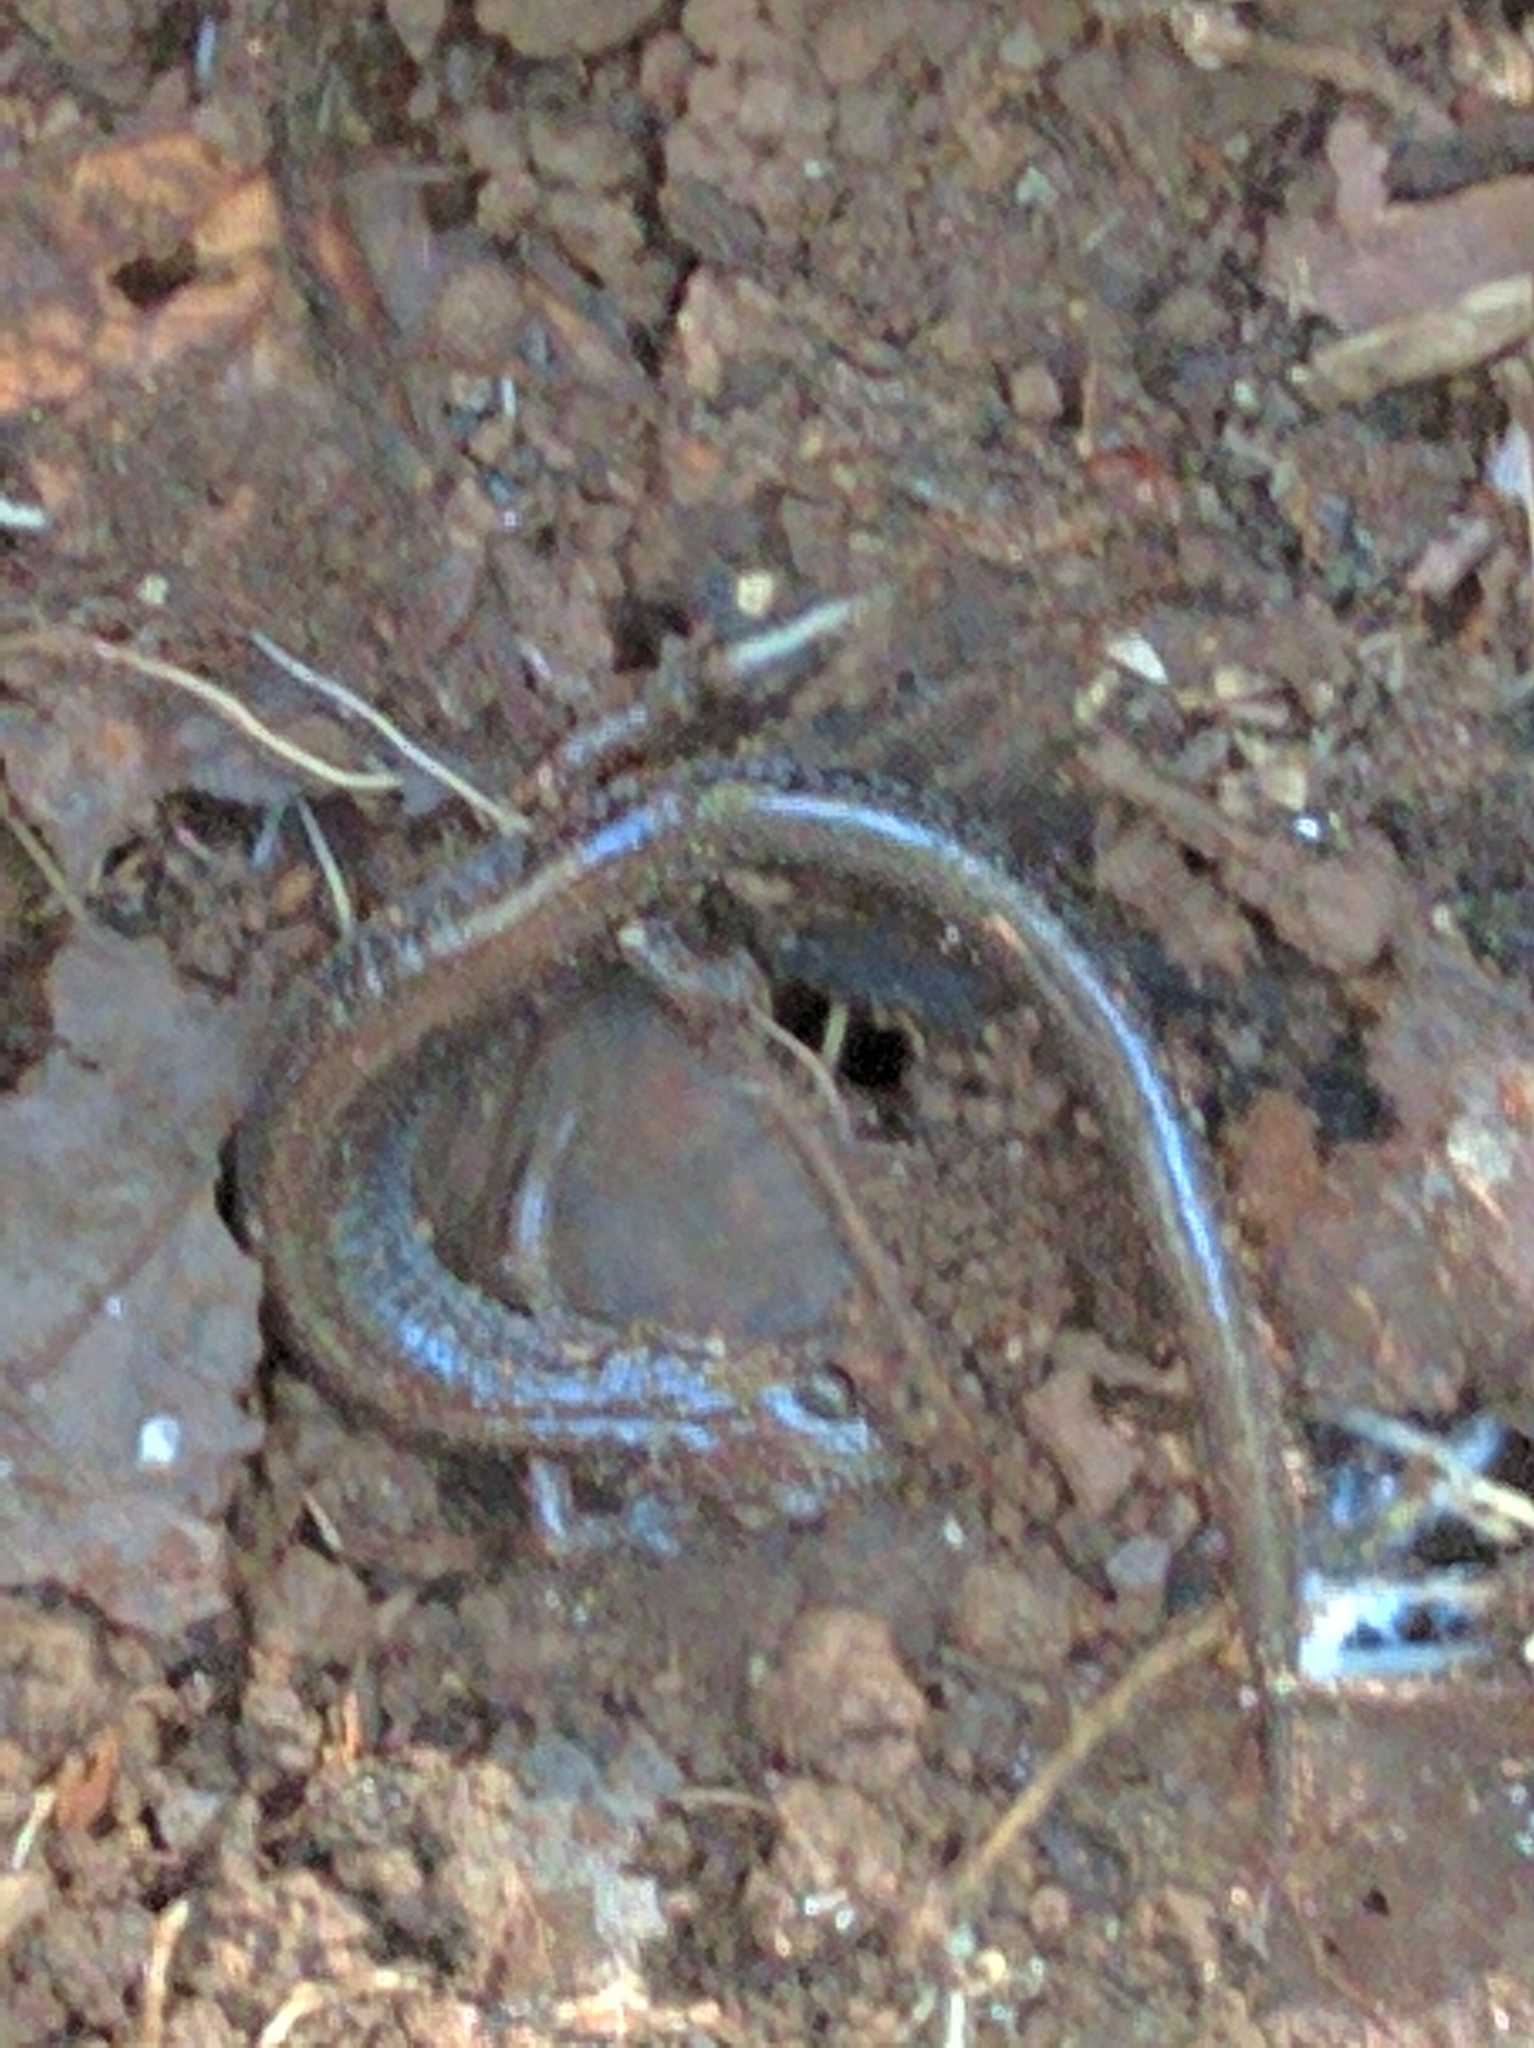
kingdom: Animalia
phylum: Chordata
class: Amphibia
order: Caudata
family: Plethodontidae
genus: Plethodon
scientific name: Plethodon cinereus
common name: Redback salamander
